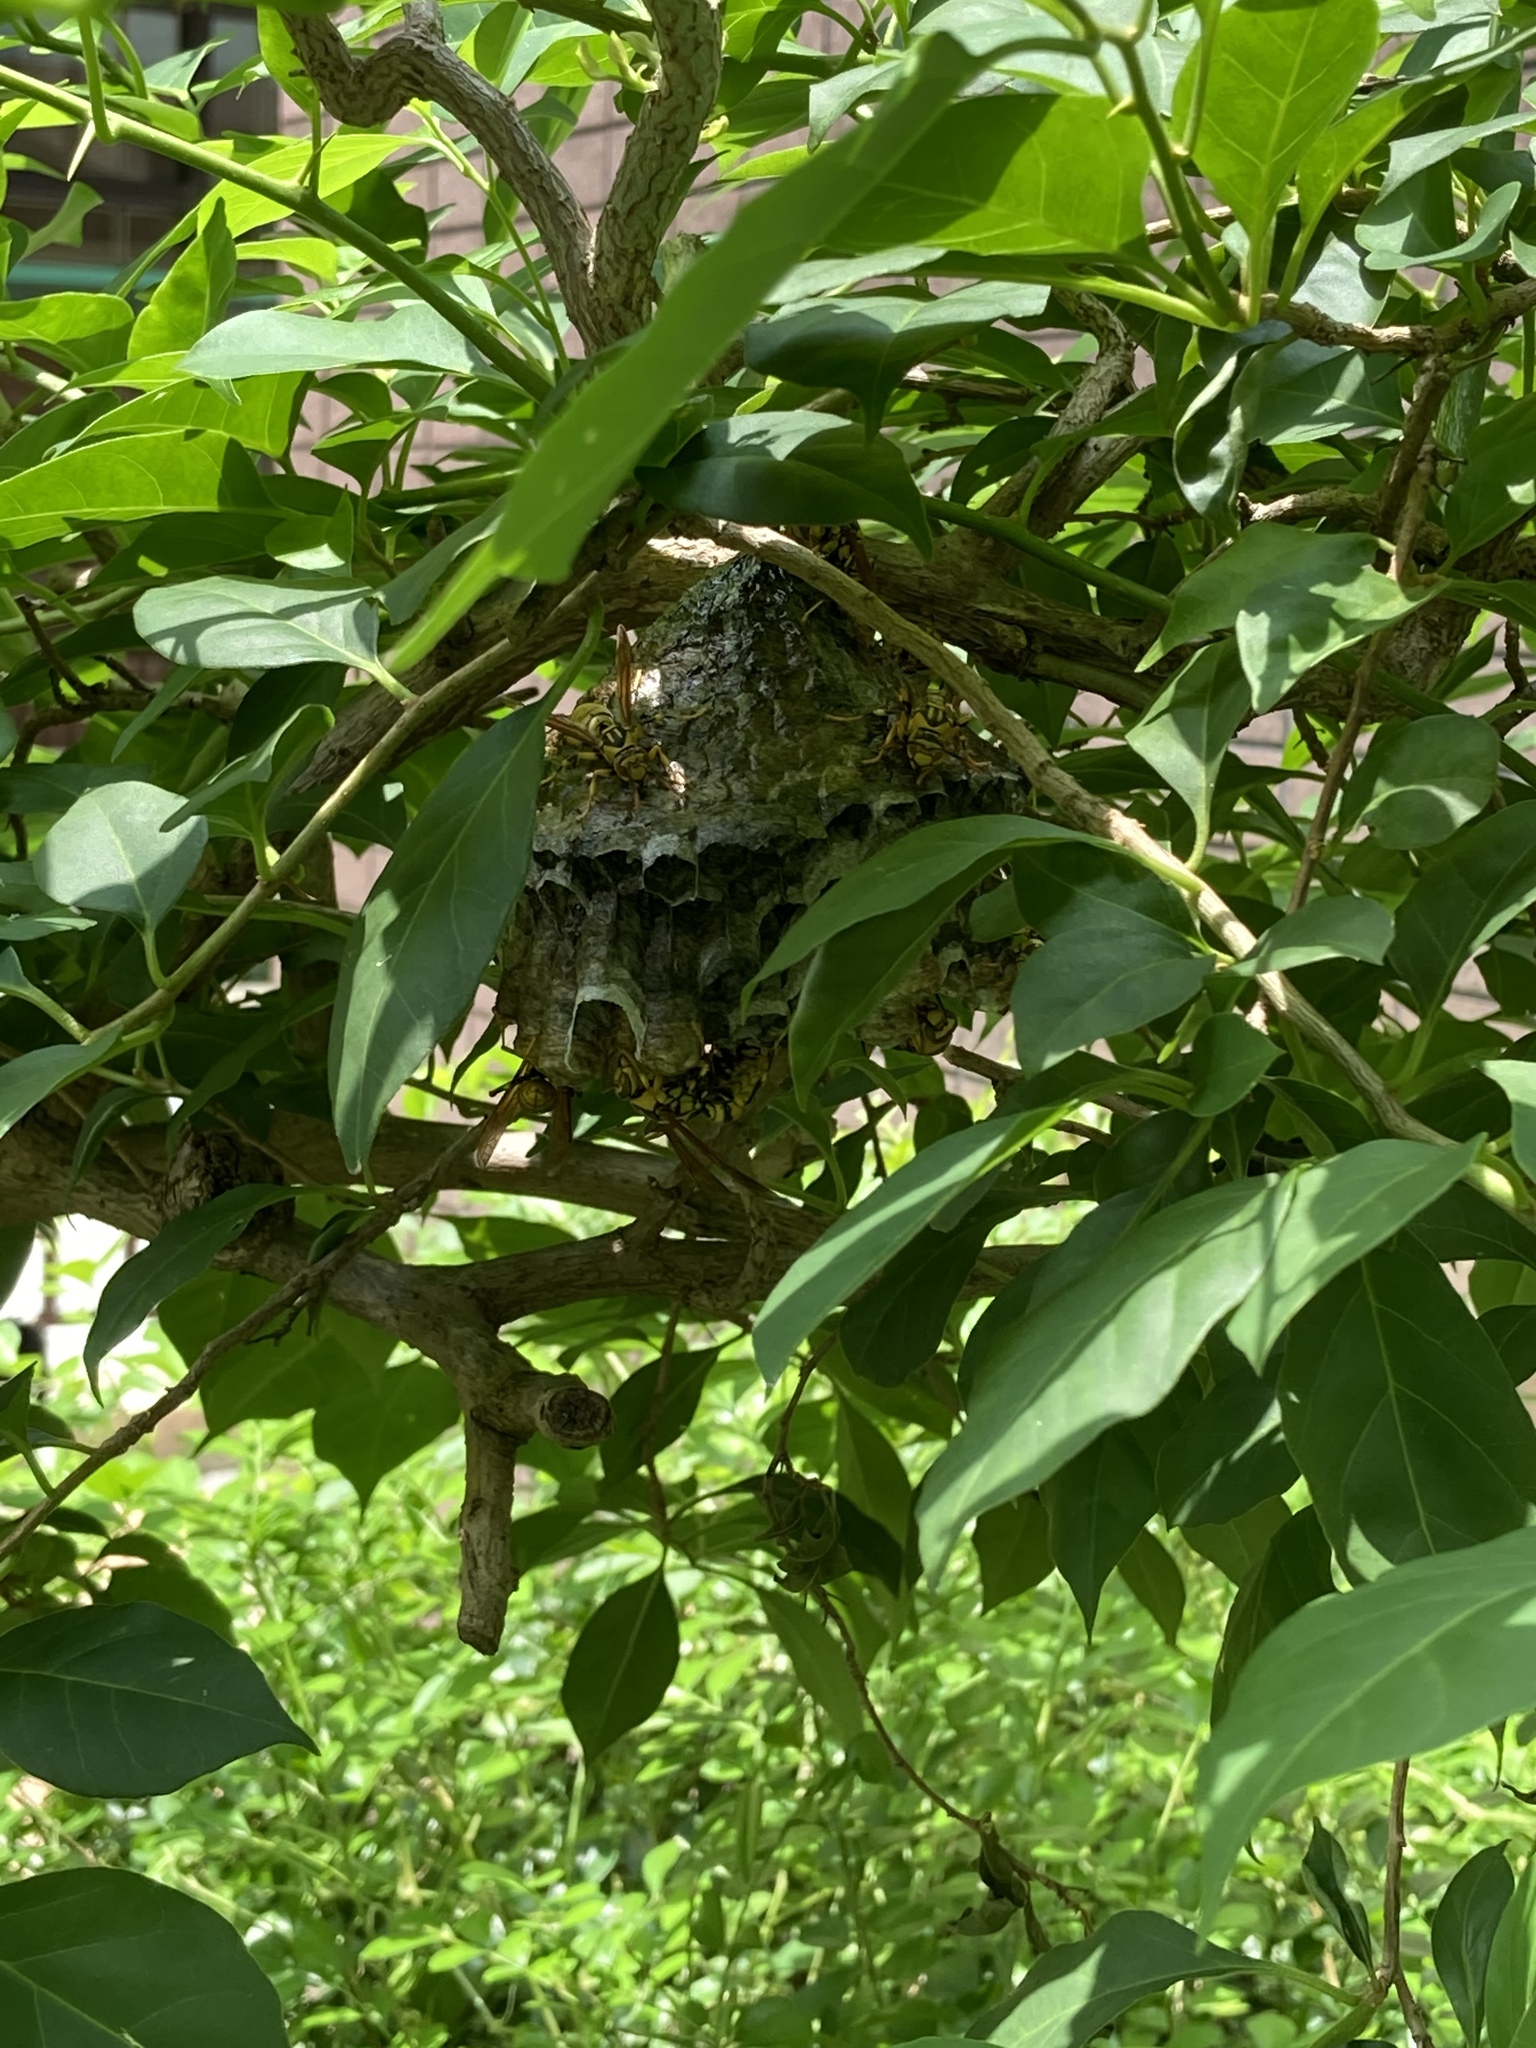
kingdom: Animalia
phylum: Arthropoda
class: Insecta
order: Hymenoptera
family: Eumenidae
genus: Polistes
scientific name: Polistes rothneyi
